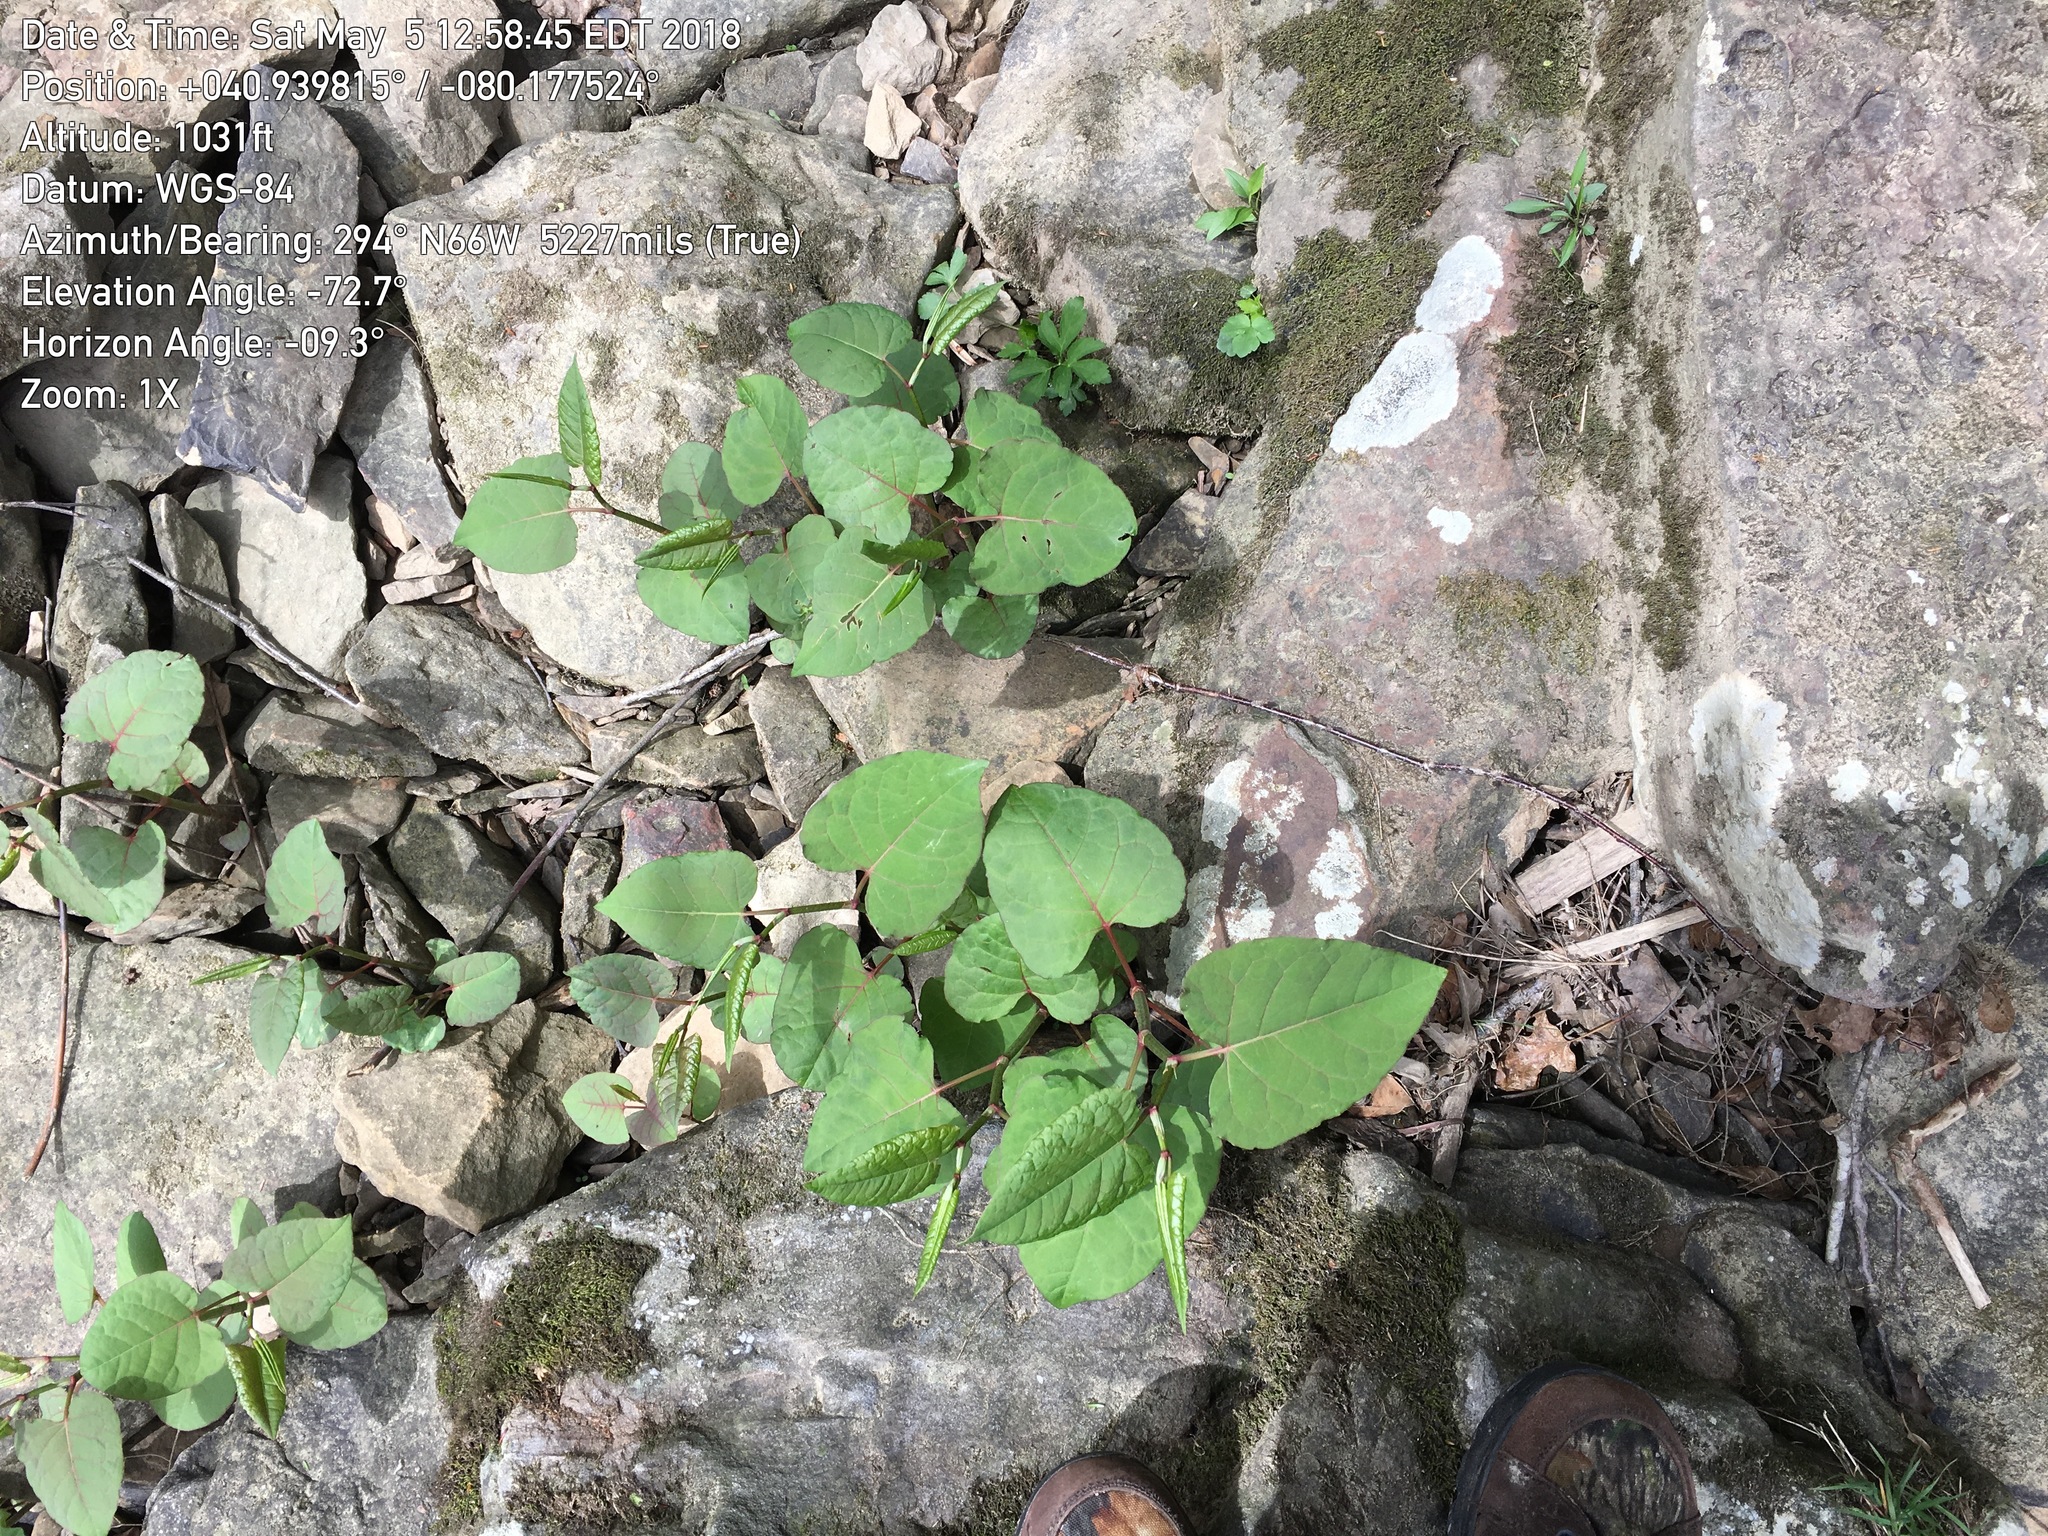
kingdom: Plantae
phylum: Tracheophyta
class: Magnoliopsida
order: Caryophyllales
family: Polygonaceae
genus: Reynoutria
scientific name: Reynoutria bohemica
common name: Bohemian knotweed
